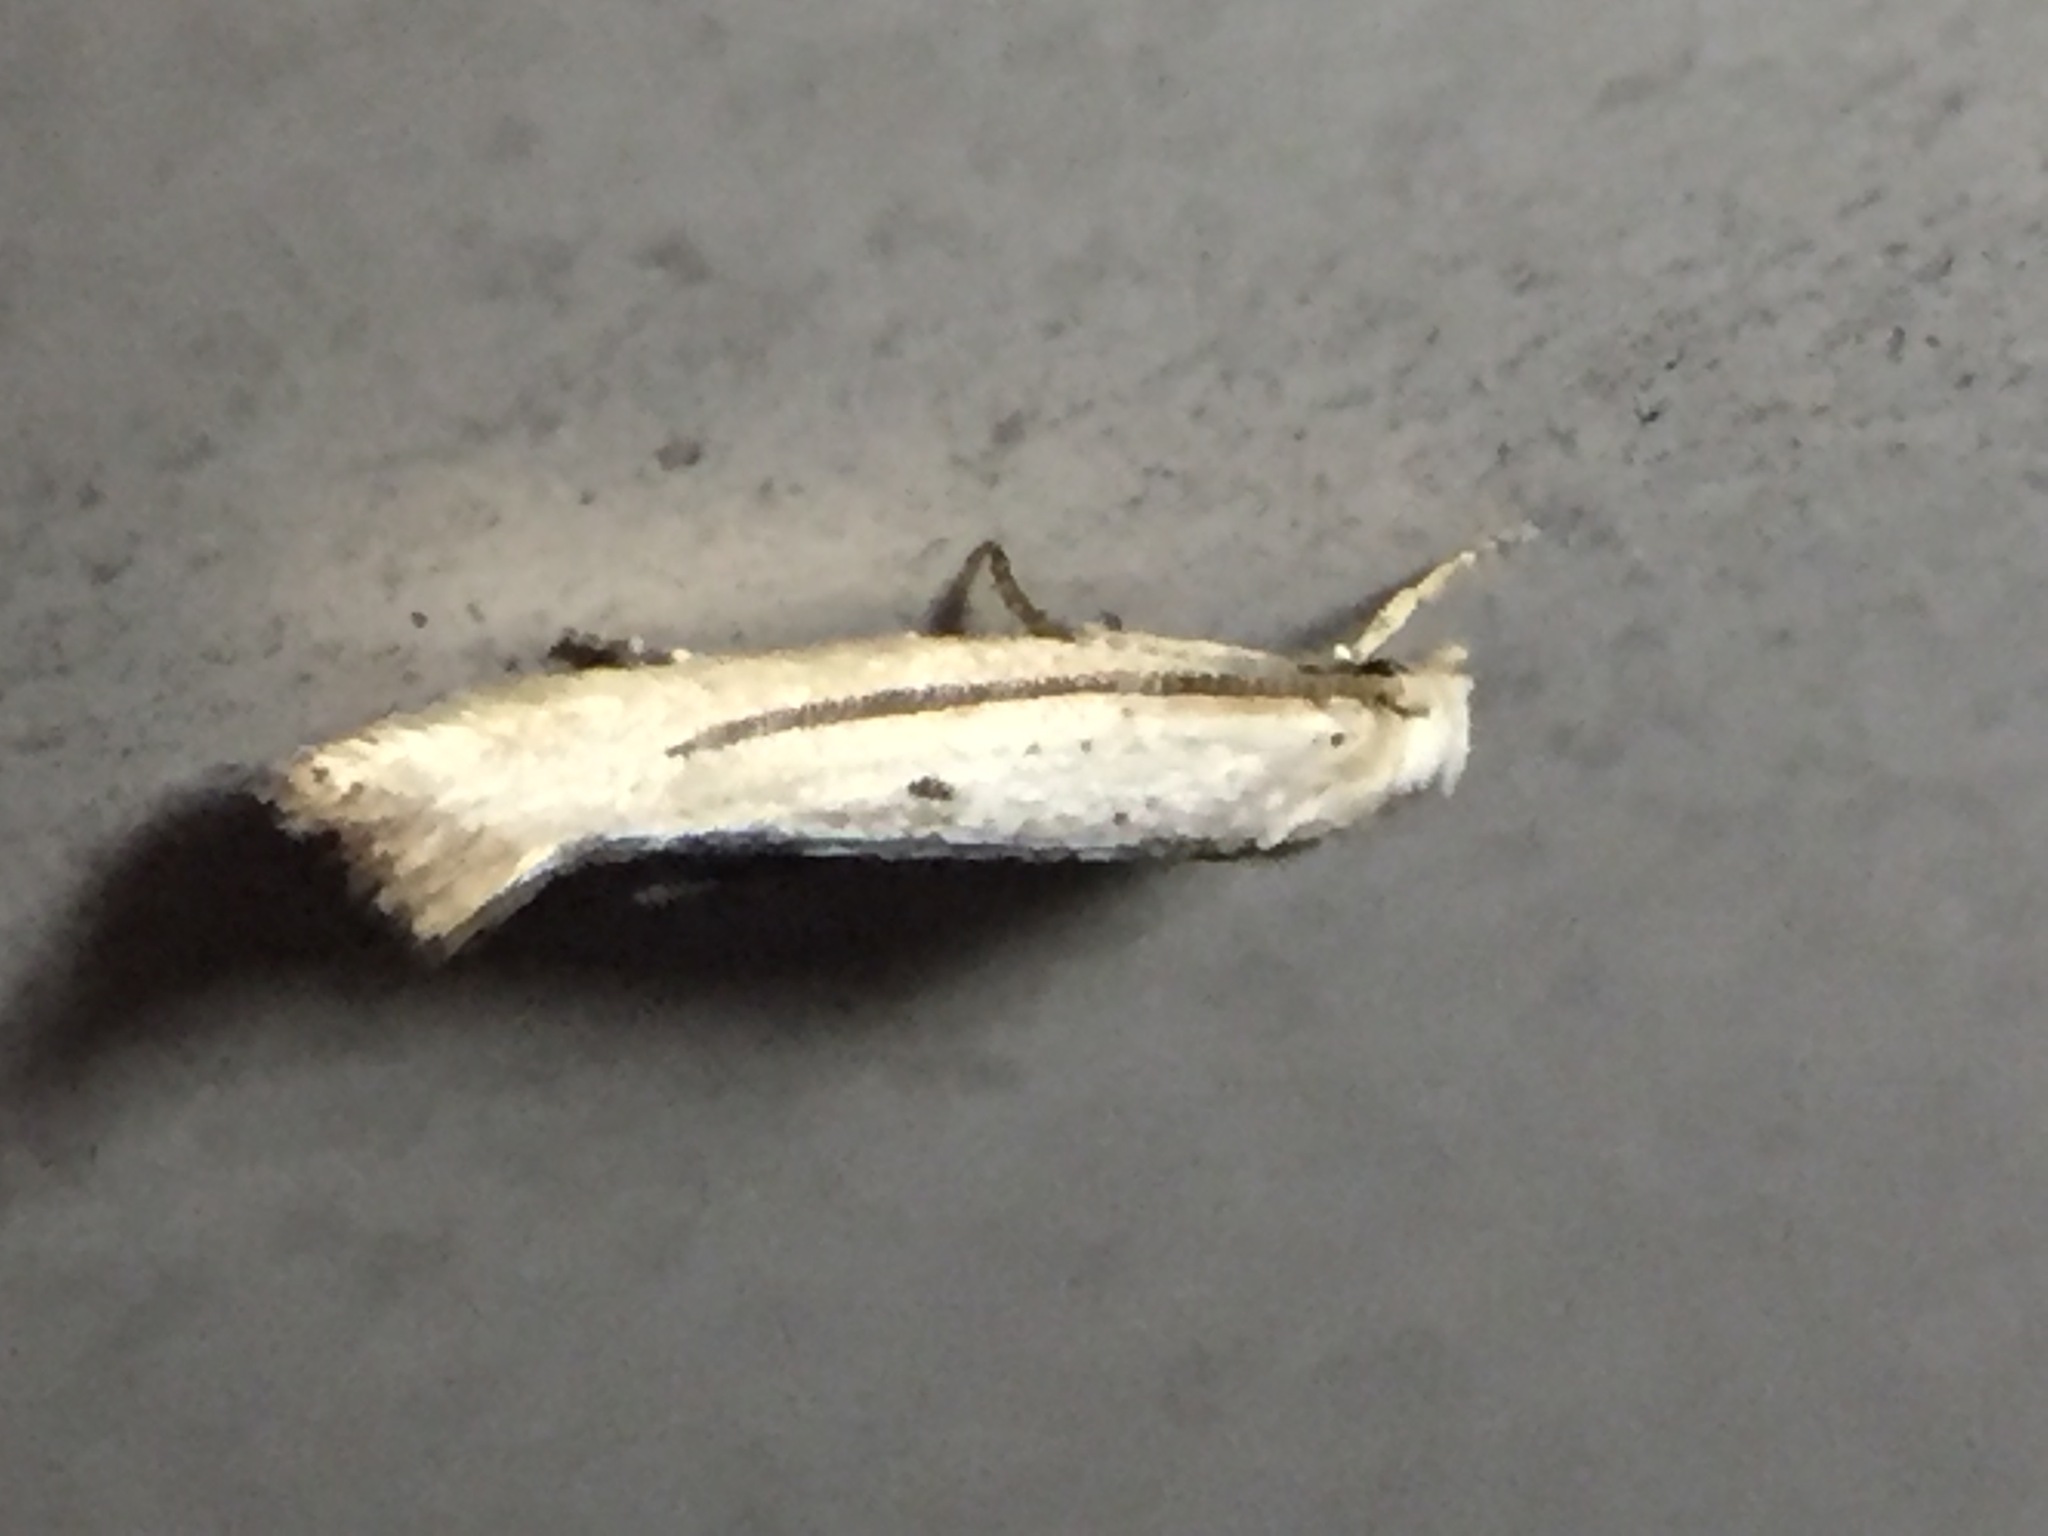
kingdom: Animalia
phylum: Arthropoda
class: Insecta
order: Lepidoptera
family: Elachistidae
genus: Elachista
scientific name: Elachista gerasmia
